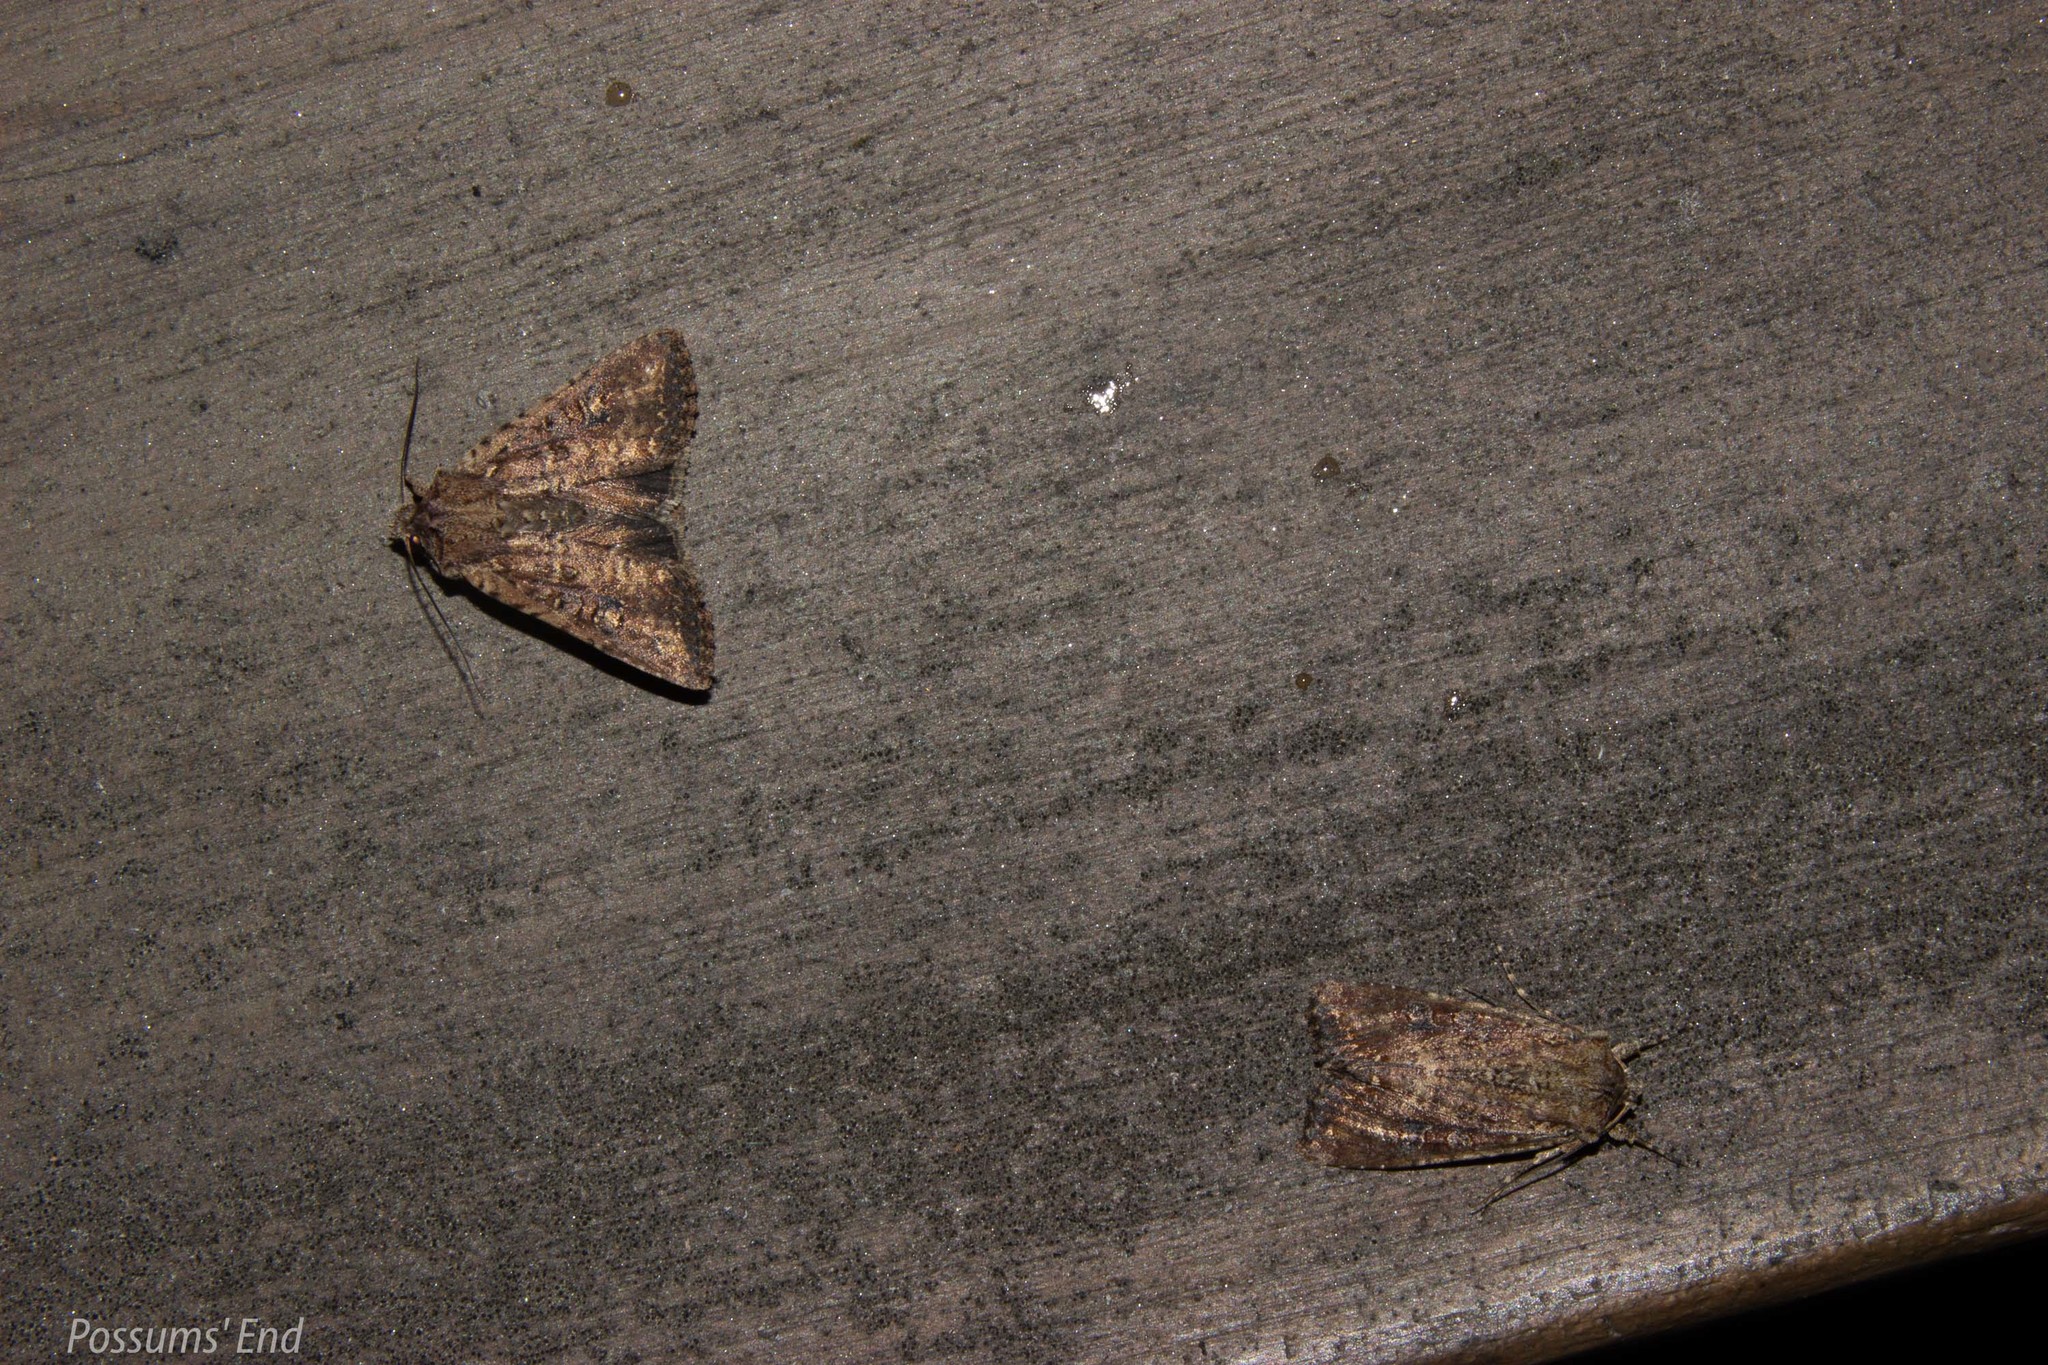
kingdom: Animalia
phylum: Arthropoda
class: Insecta
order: Lepidoptera
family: Noctuidae
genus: Ichneutica
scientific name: Ichneutica morosa
